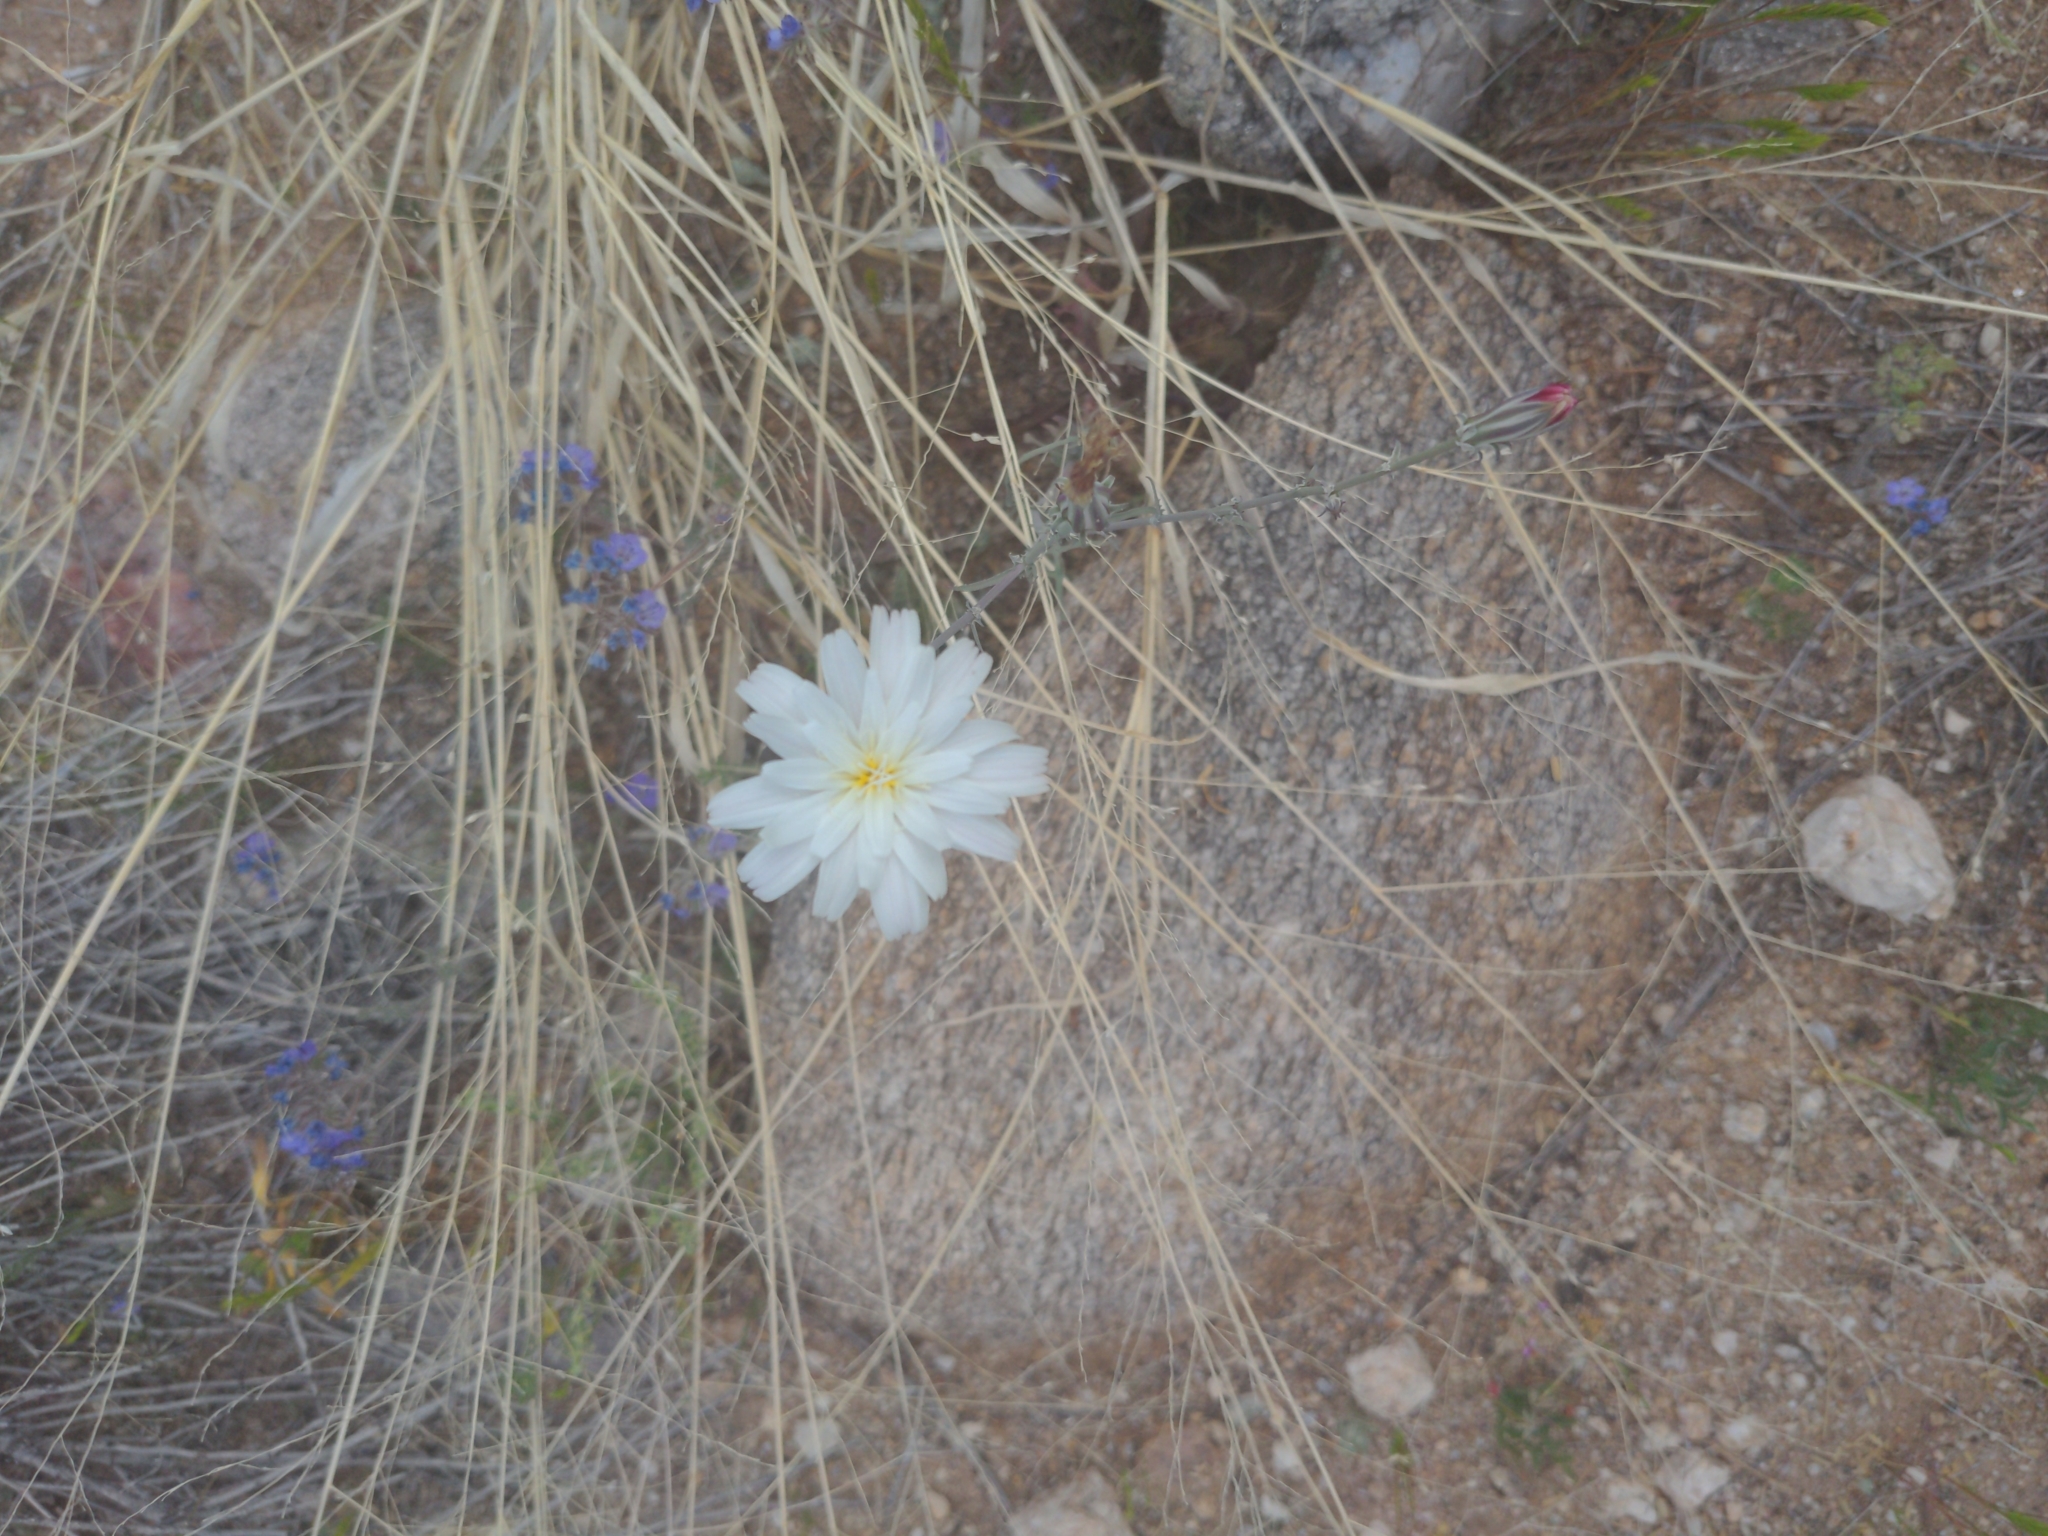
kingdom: Plantae
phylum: Tracheophyta
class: Magnoliopsida
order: Asterales
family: Asteraceae
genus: Rafinesquia
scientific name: Rafinesquia neomexicana
